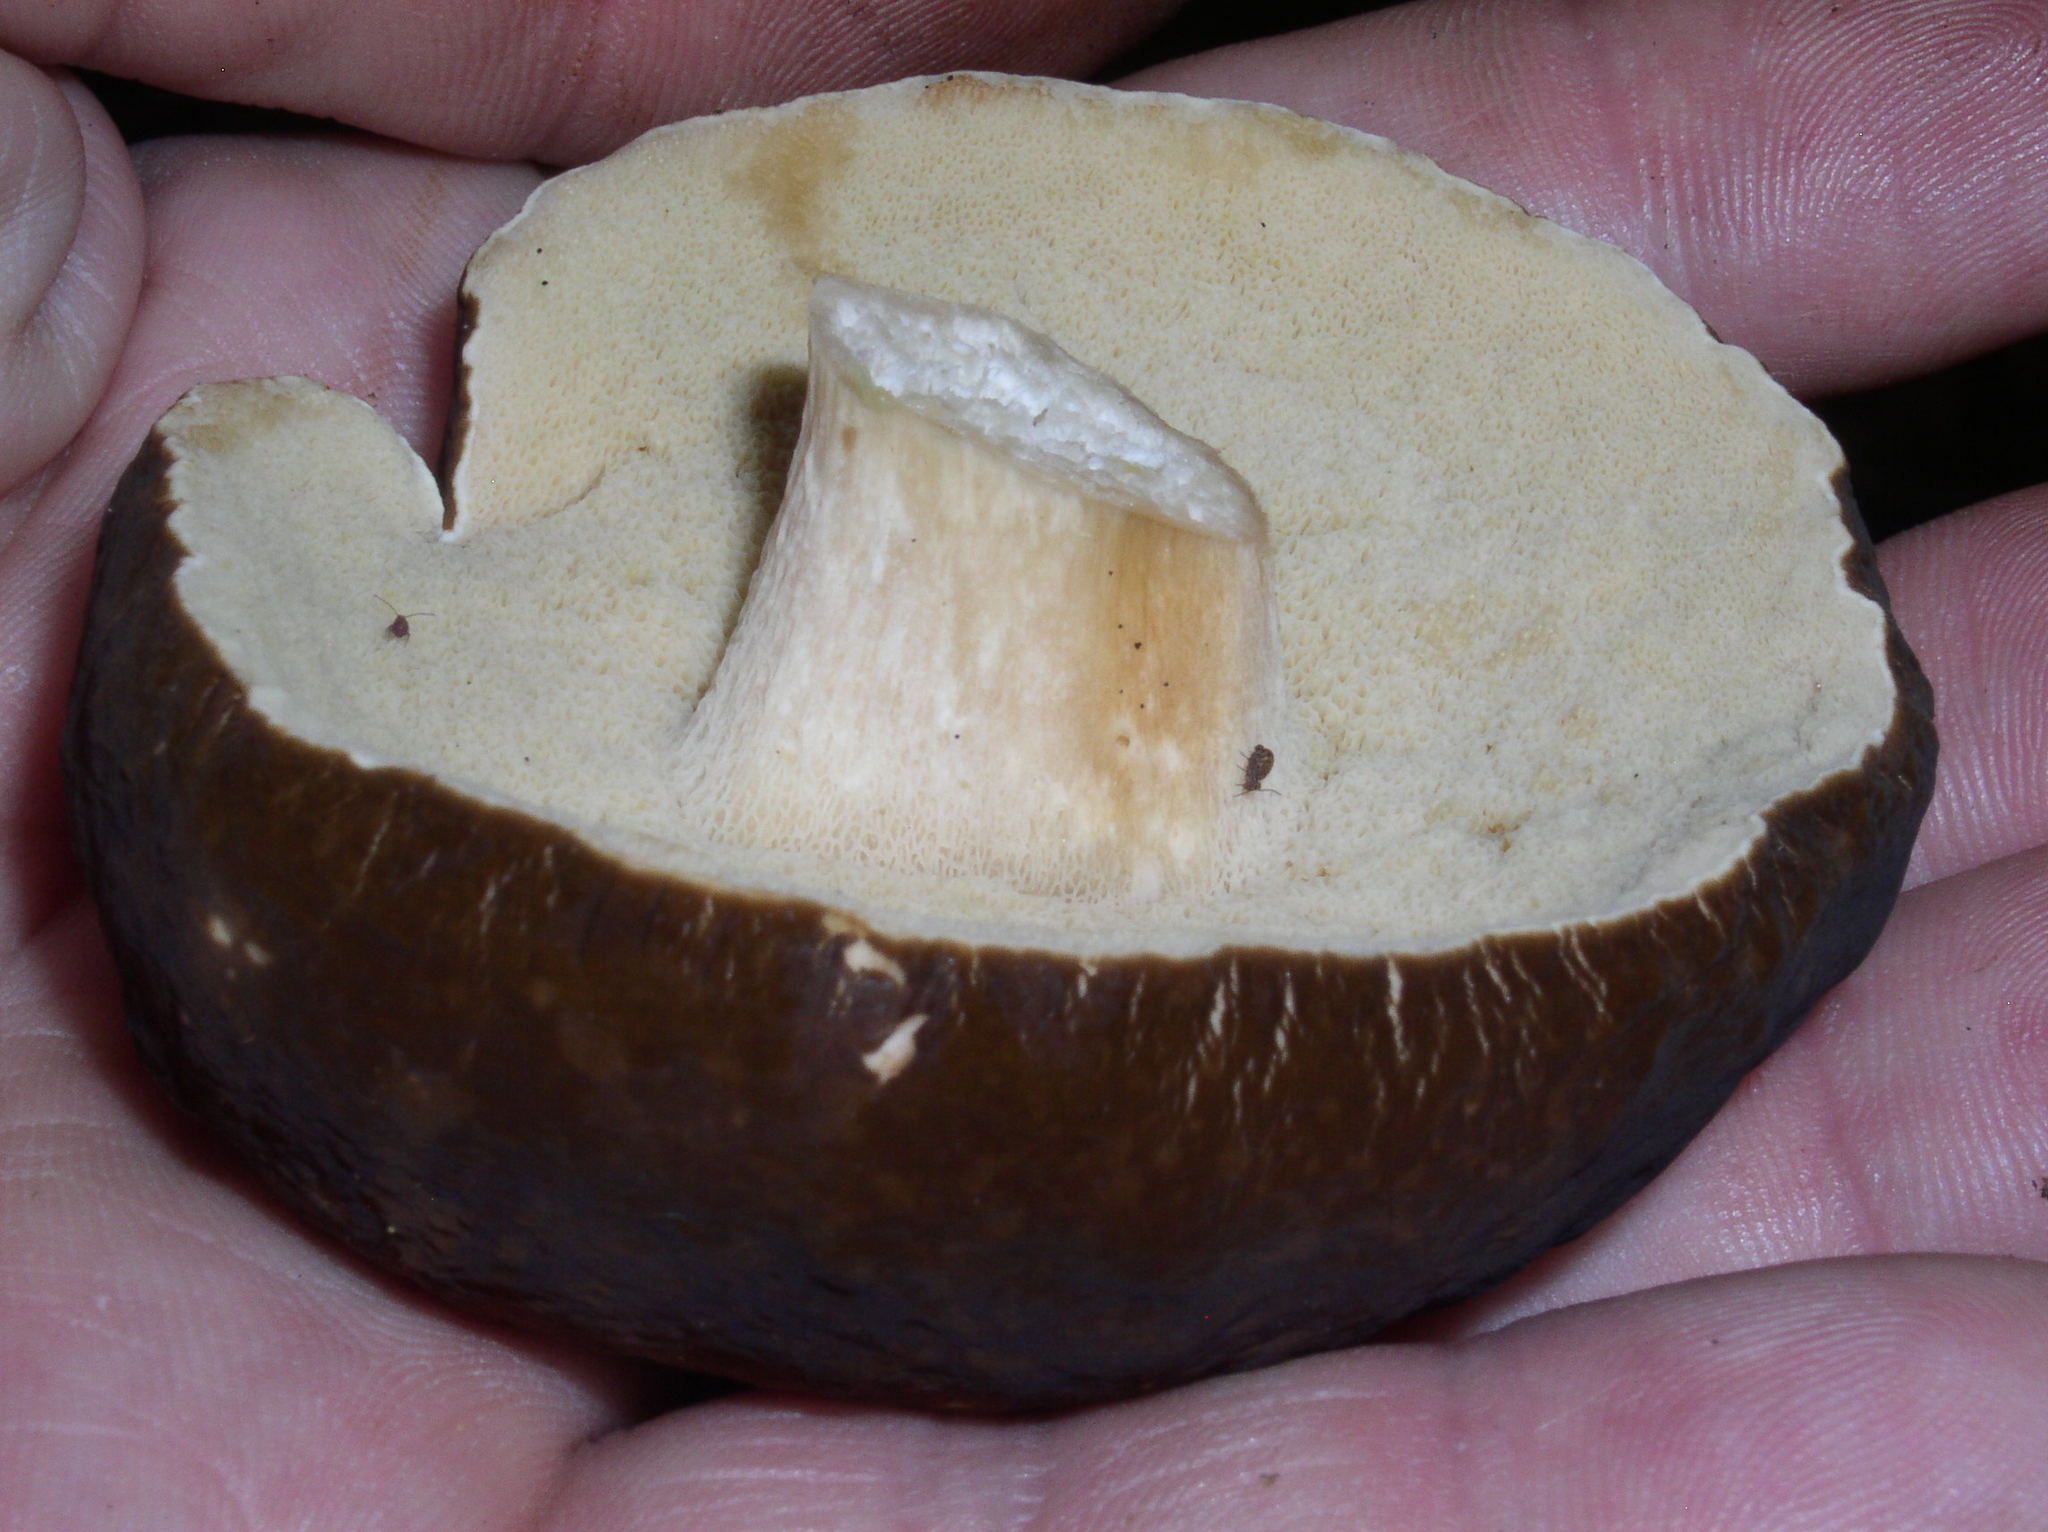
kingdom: Fungi
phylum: Basidiomycota
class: Agaricomycetes
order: Boletales
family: Boletaceae
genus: Xanthoconium
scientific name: Xanthoconium affine
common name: Spotted bolete
